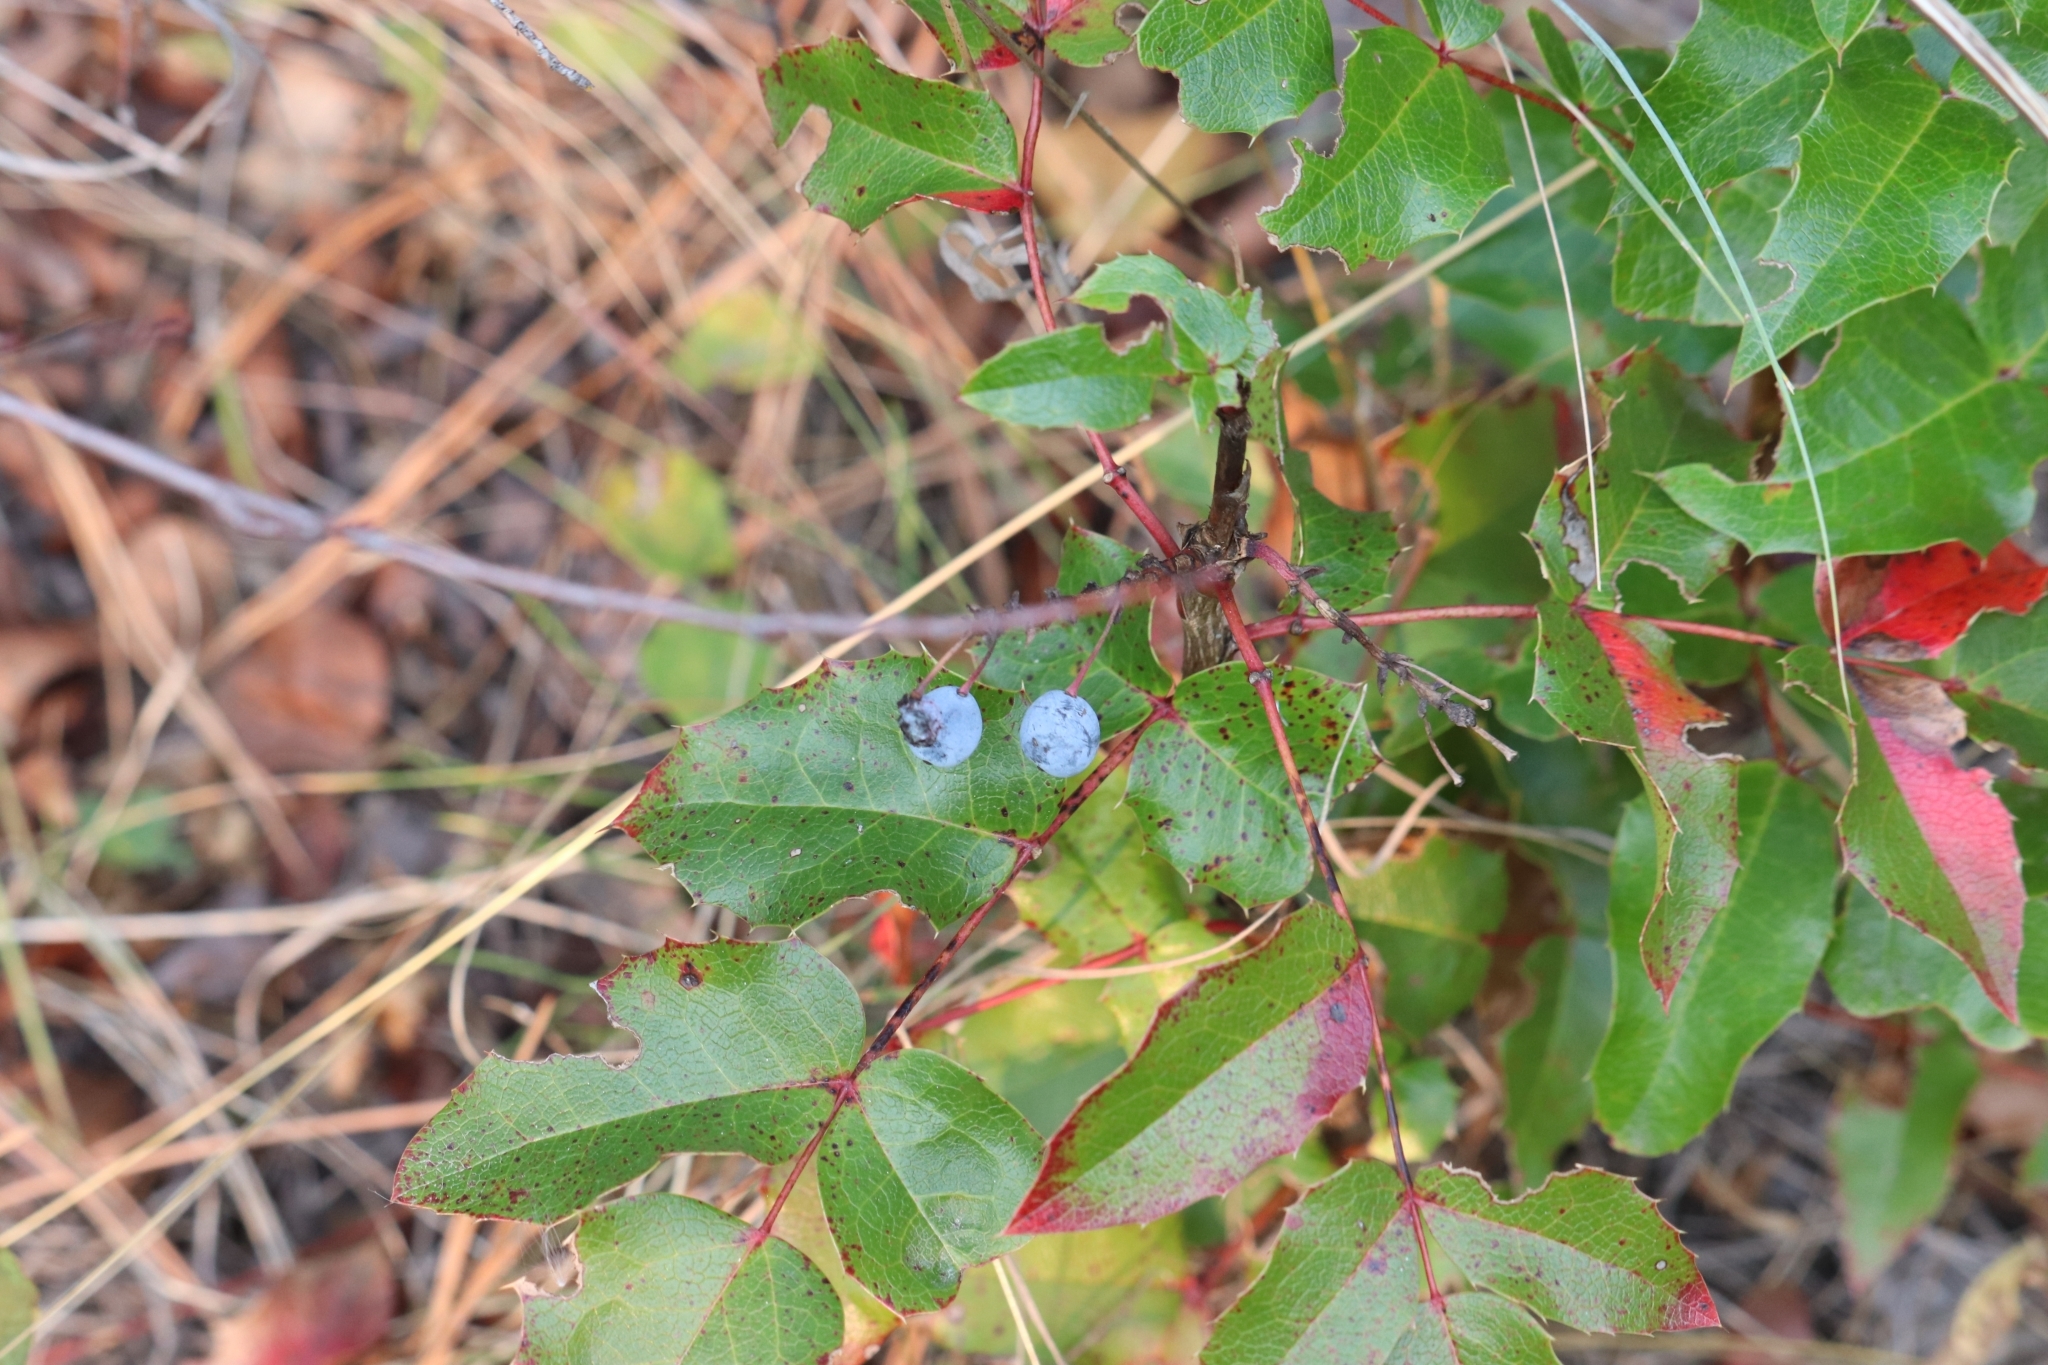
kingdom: Plantae
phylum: Tracheophyta
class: Magnoliopsida
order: Ranunculales
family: Berberidaceae
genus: Mahonia
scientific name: Mahonia aquifolium
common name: Oregon-grape
